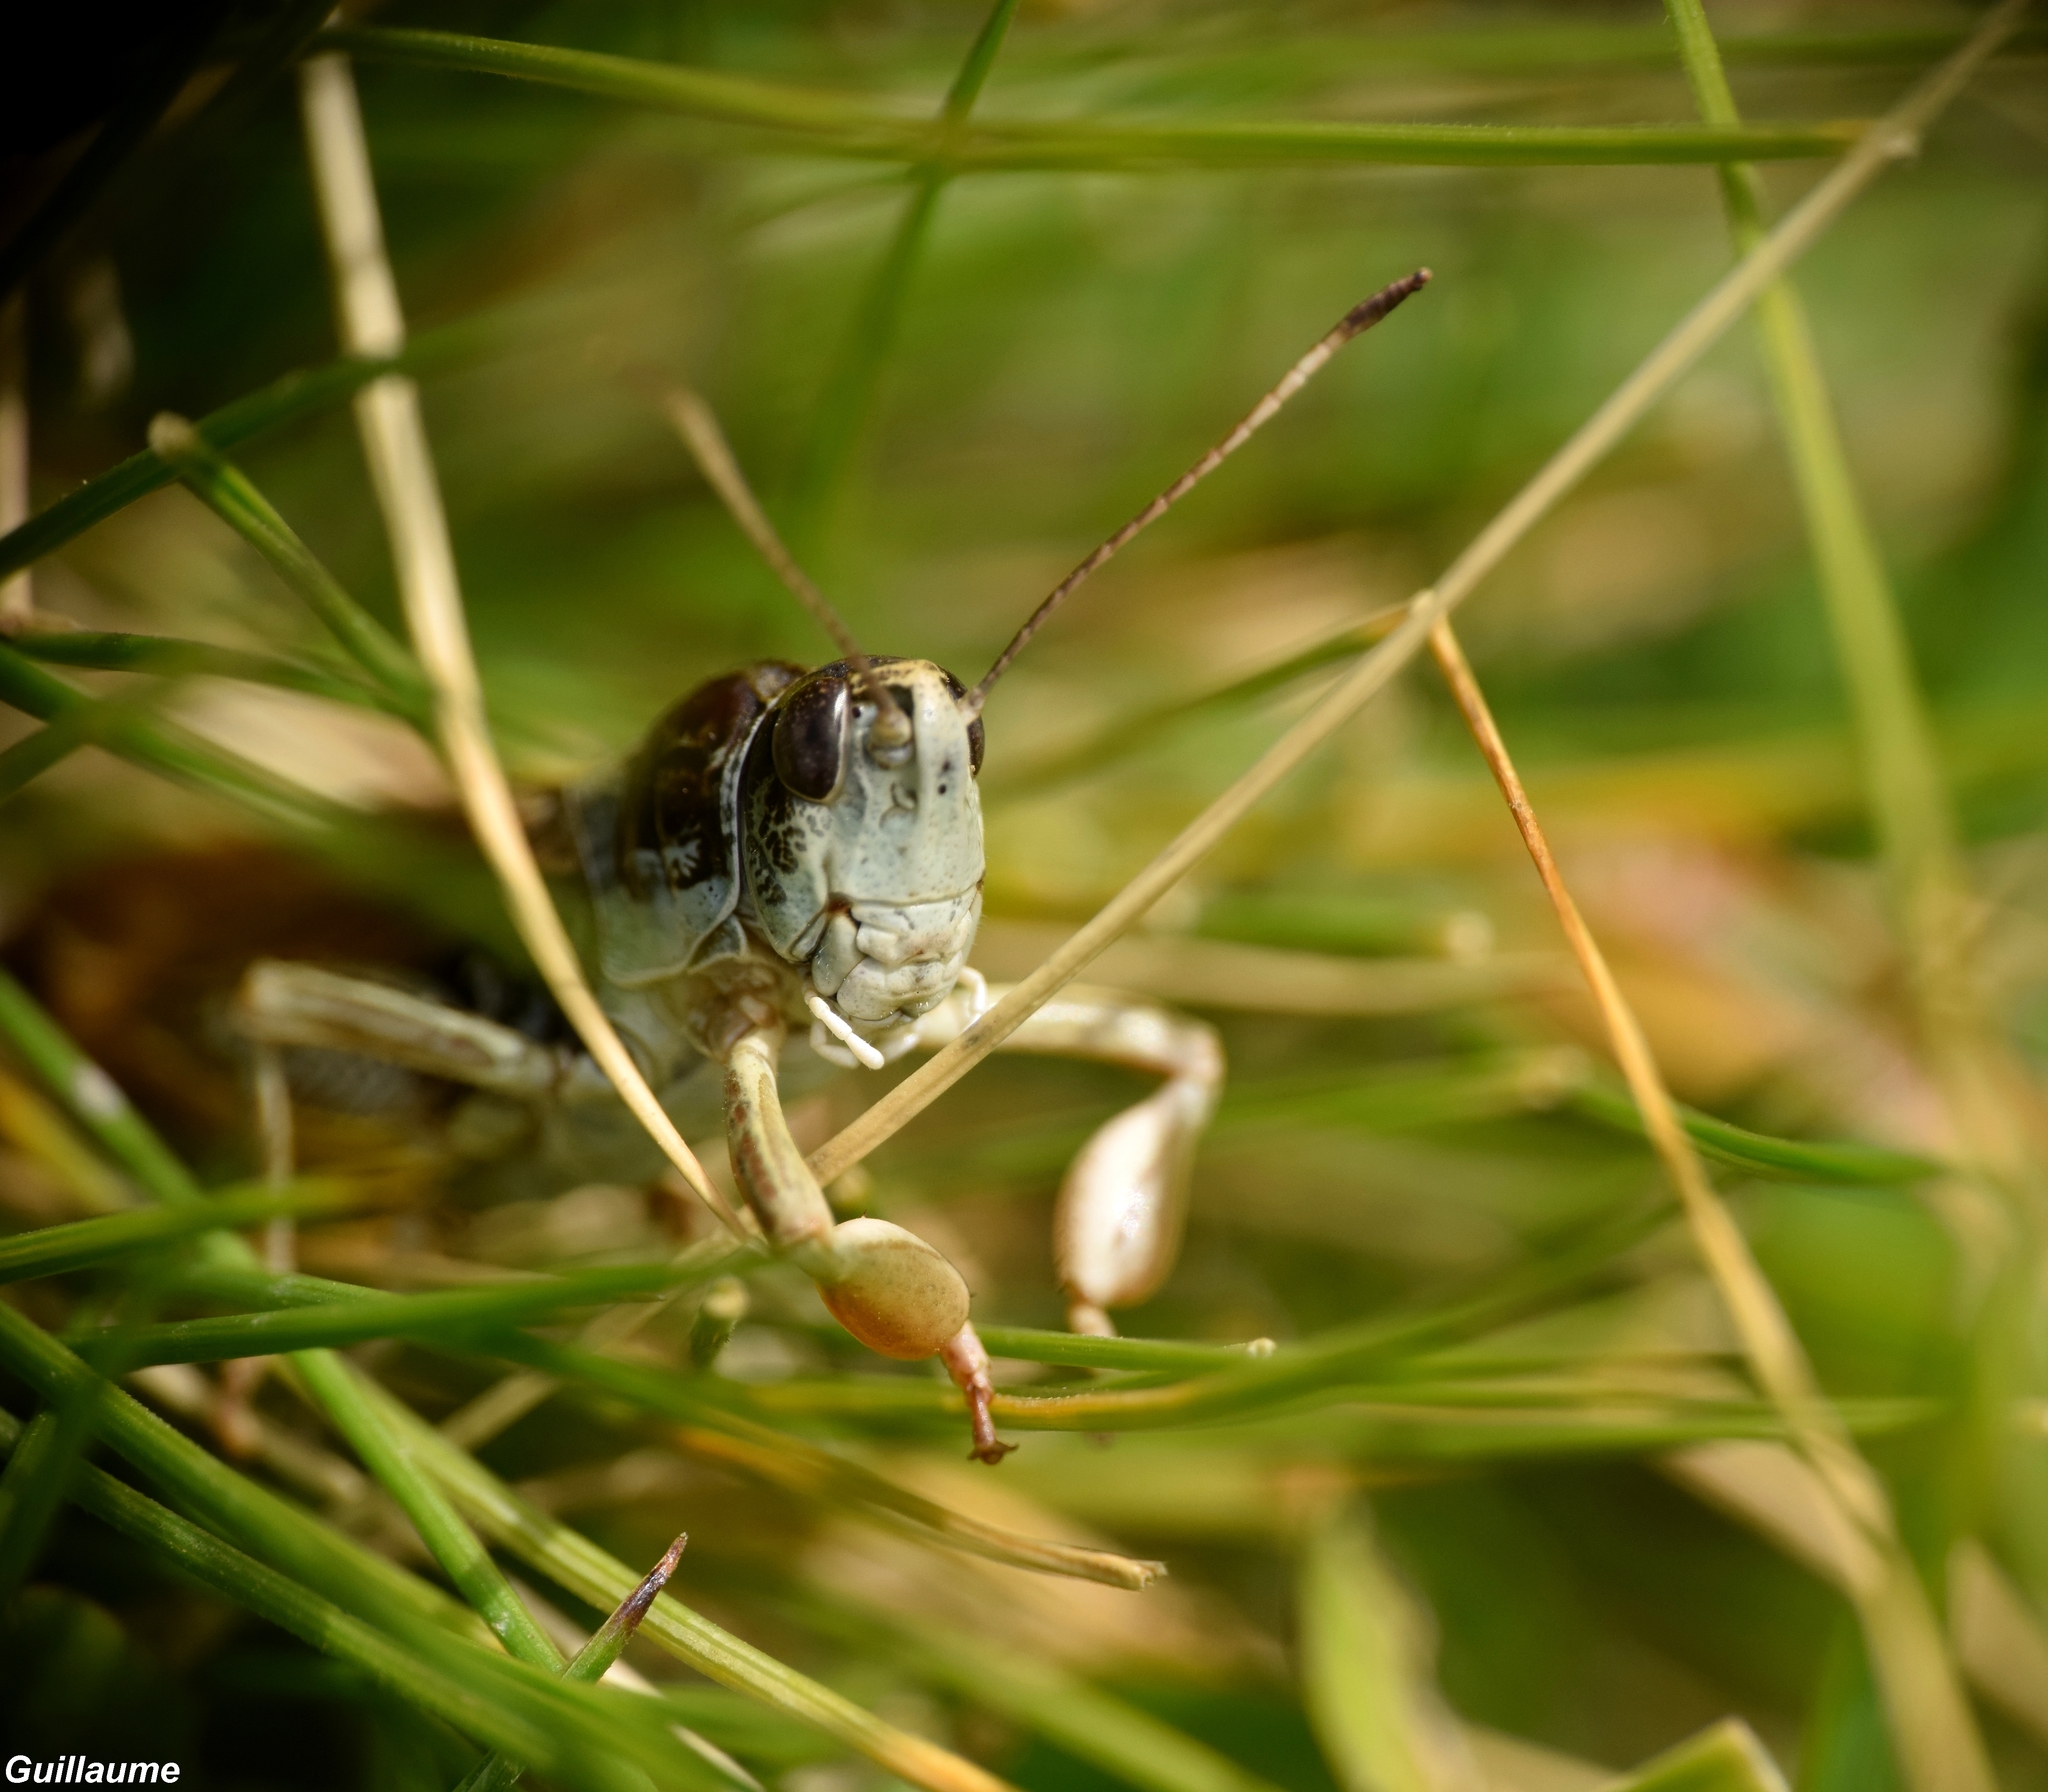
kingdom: Animalia
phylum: Arthropoda
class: Insecta
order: Orthoptera
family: Acrididae
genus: Gomphocerus
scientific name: Gomphocerus sibiricus
